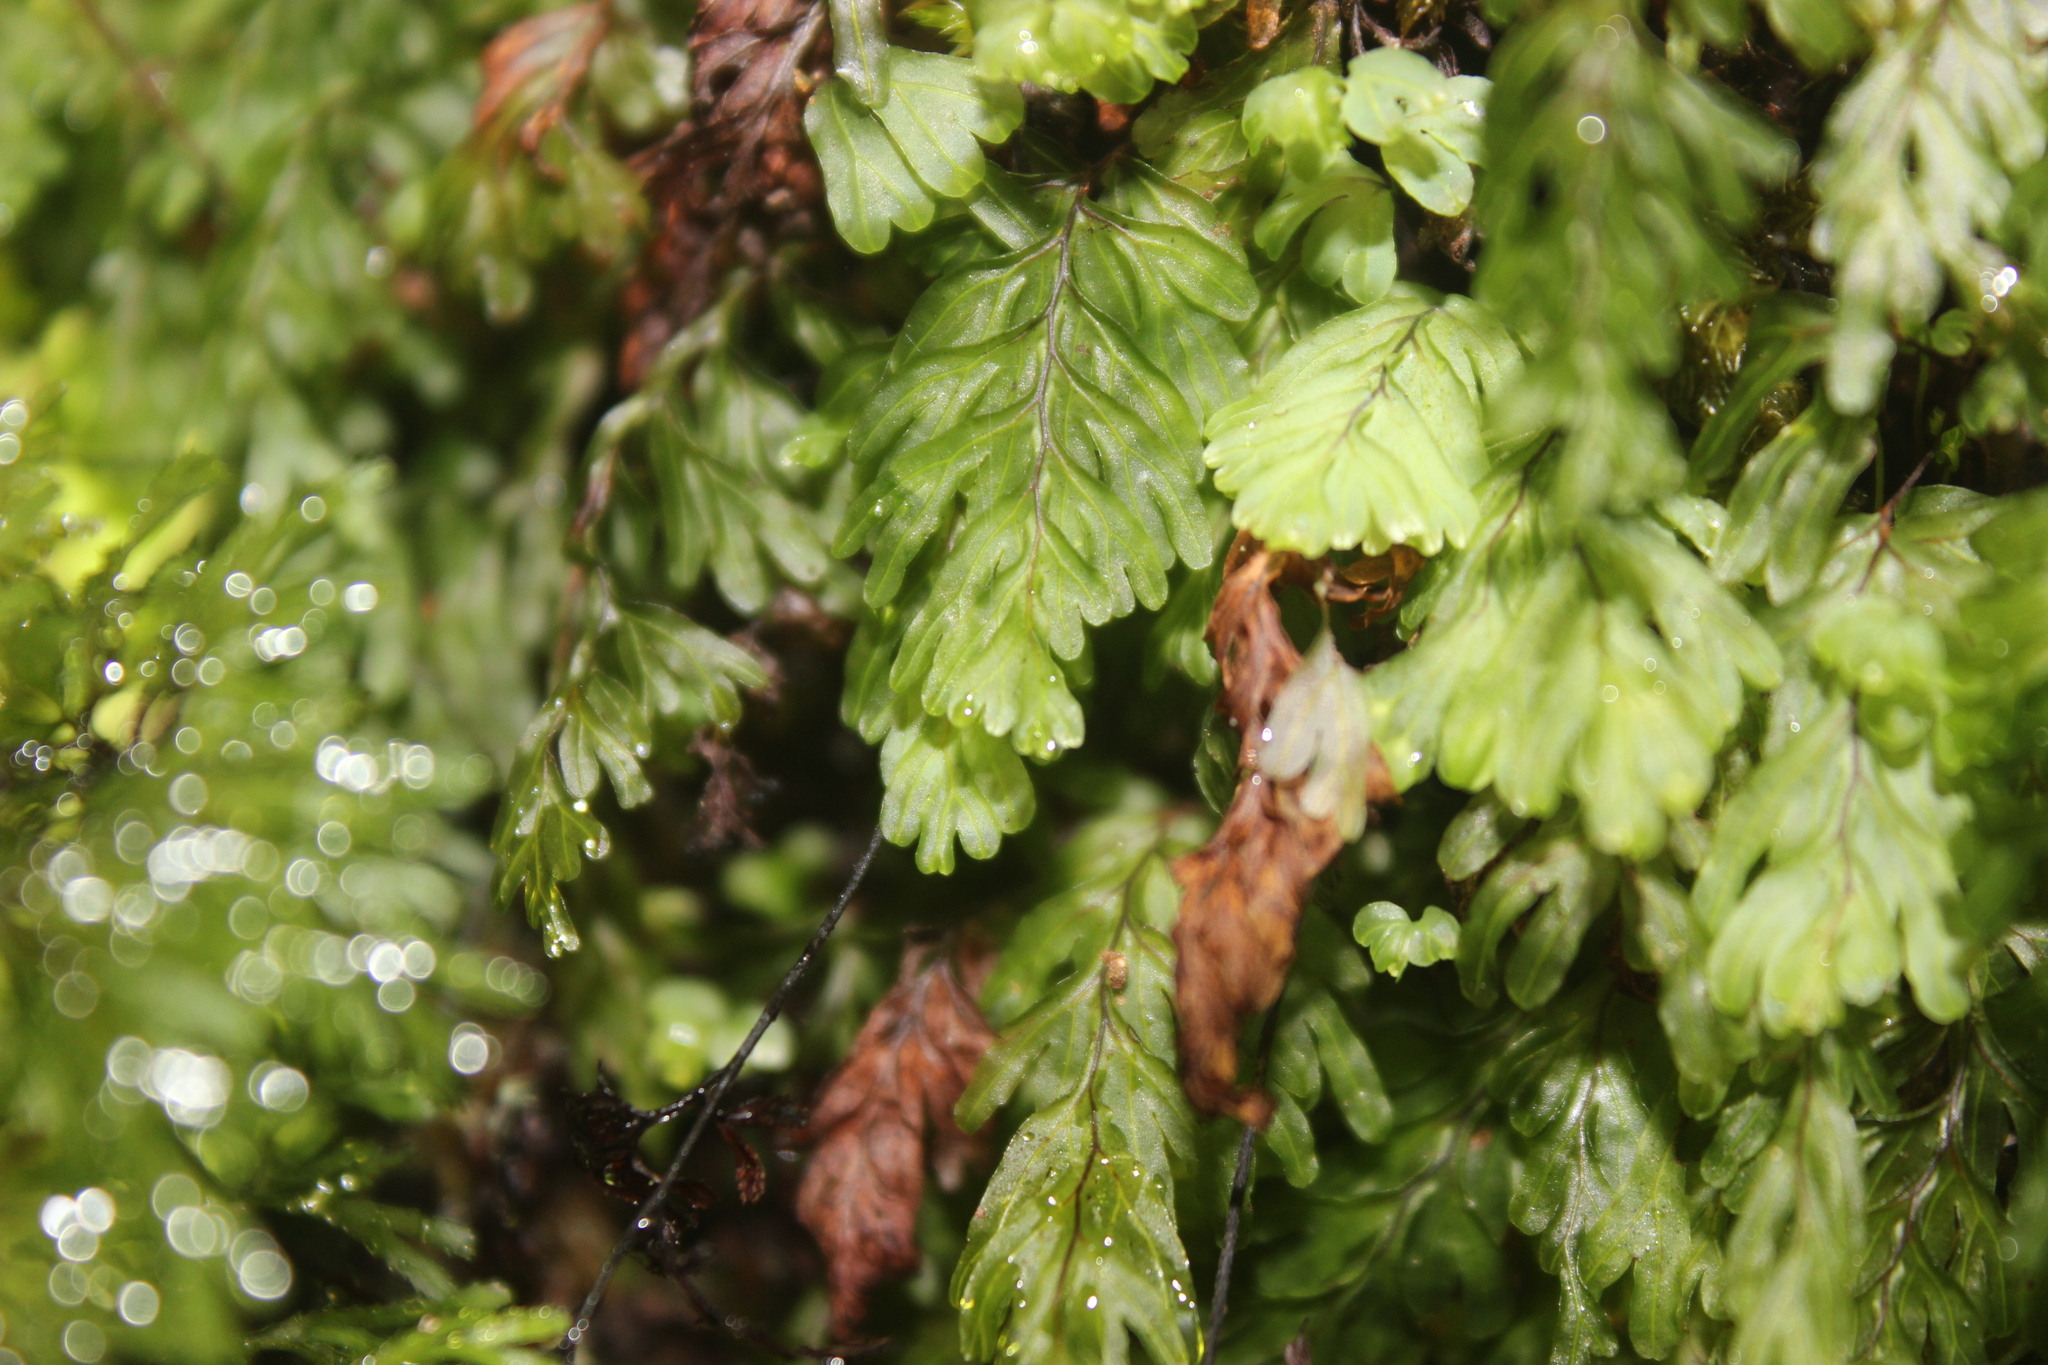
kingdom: Plantae
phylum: Tracheophyta
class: Polypodiopsida
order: Hymenophyllales
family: Hymenophyllaceae
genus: Hymenophyllum
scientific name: Hymenophyllum rarum
